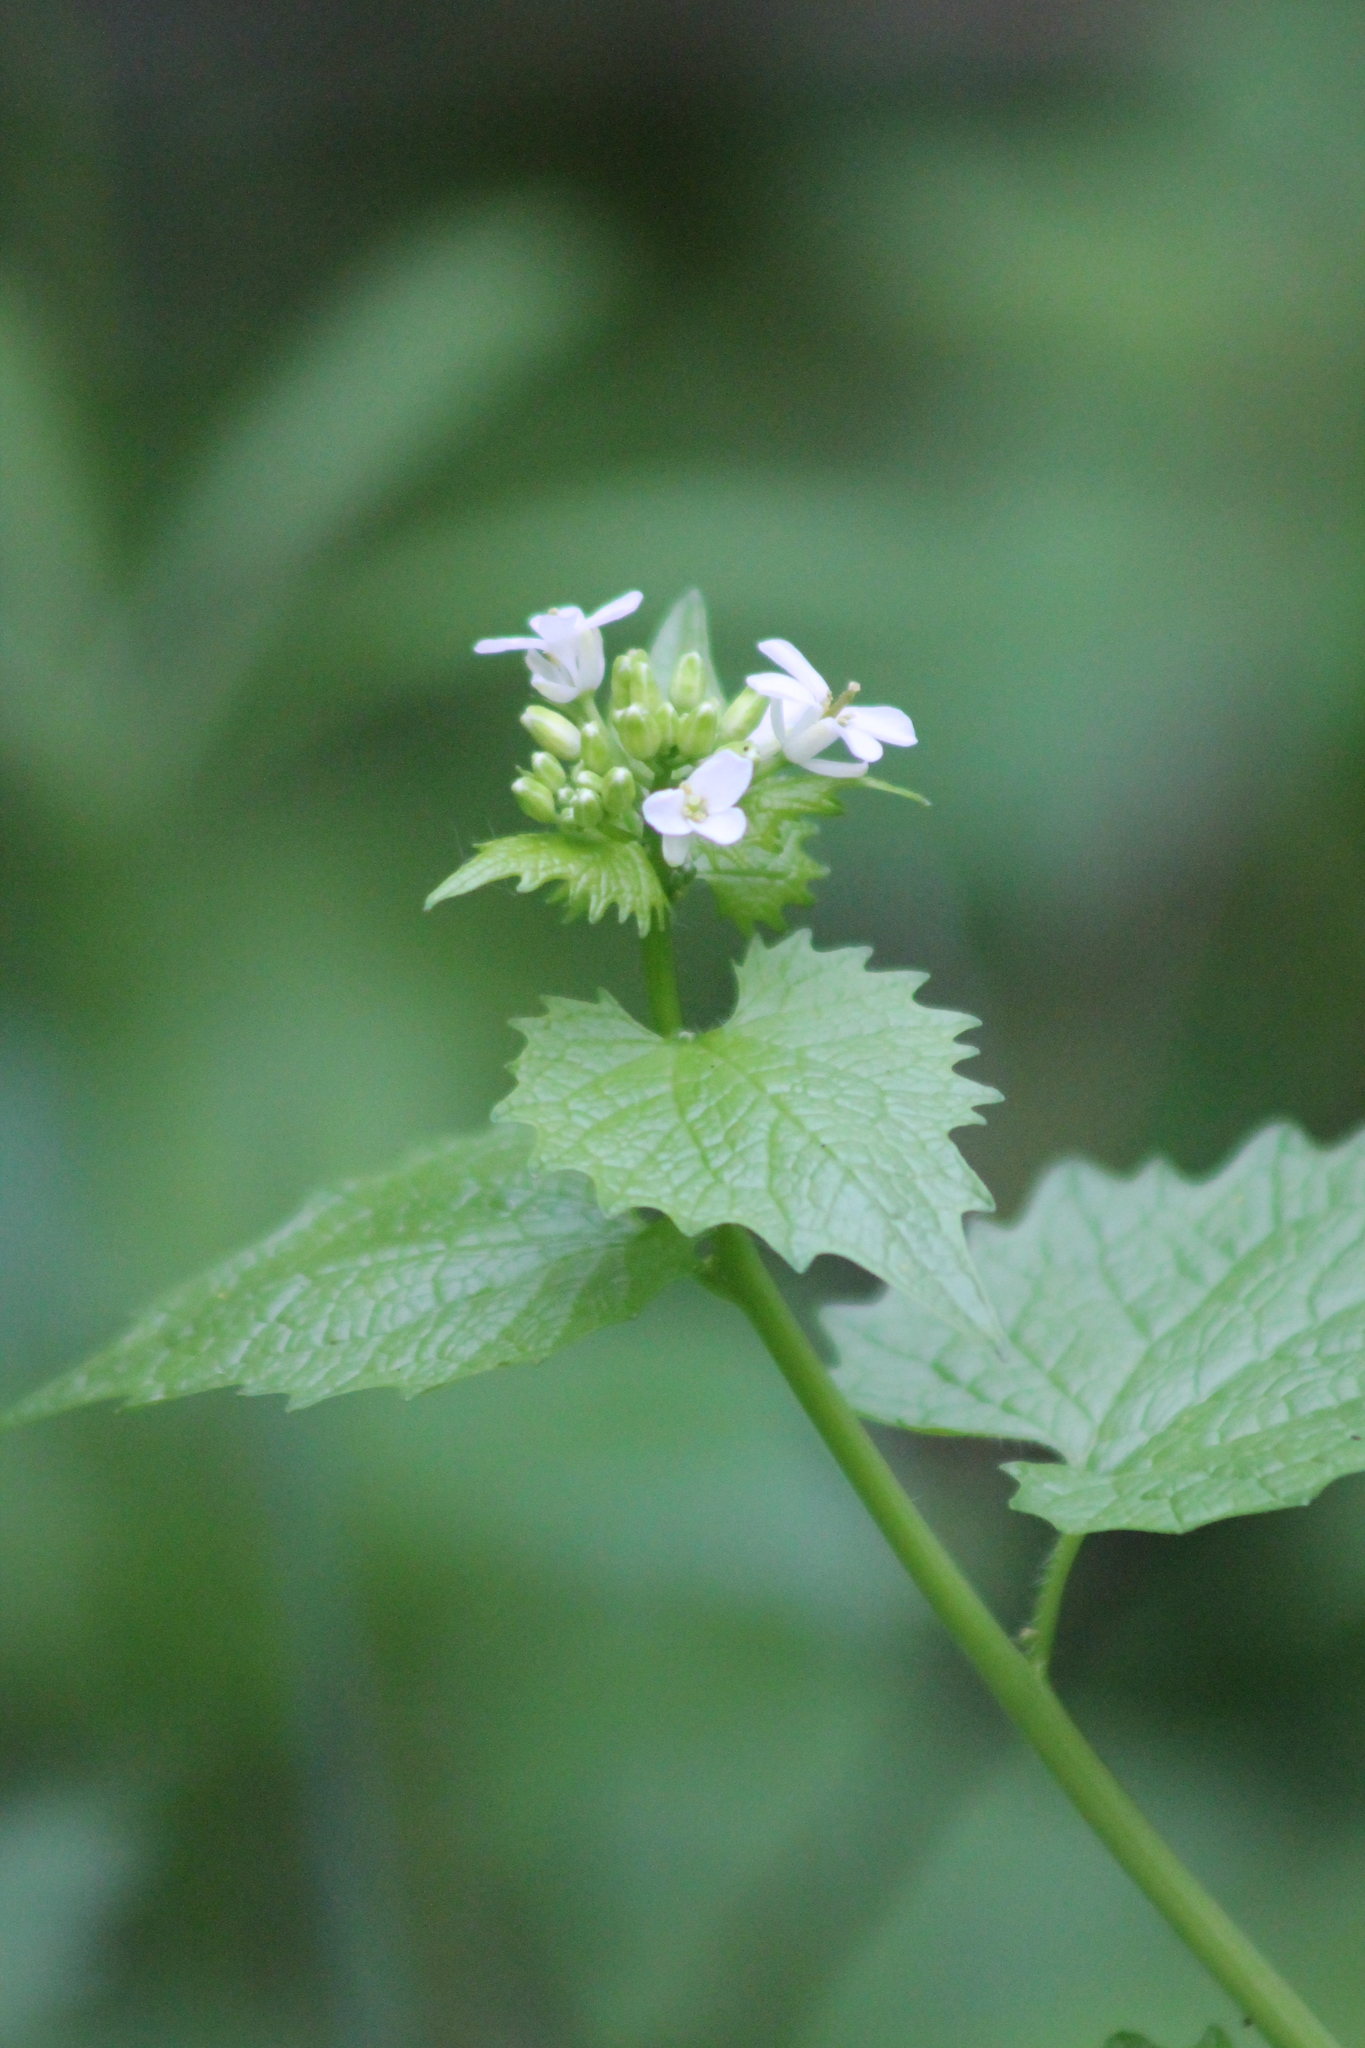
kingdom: Plantae
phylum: Tracheophyta
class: Magnoliopsida
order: Brassicales
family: Brassicaceae
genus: Alliaria
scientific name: Alliaria petiolata
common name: Garlic mustard
